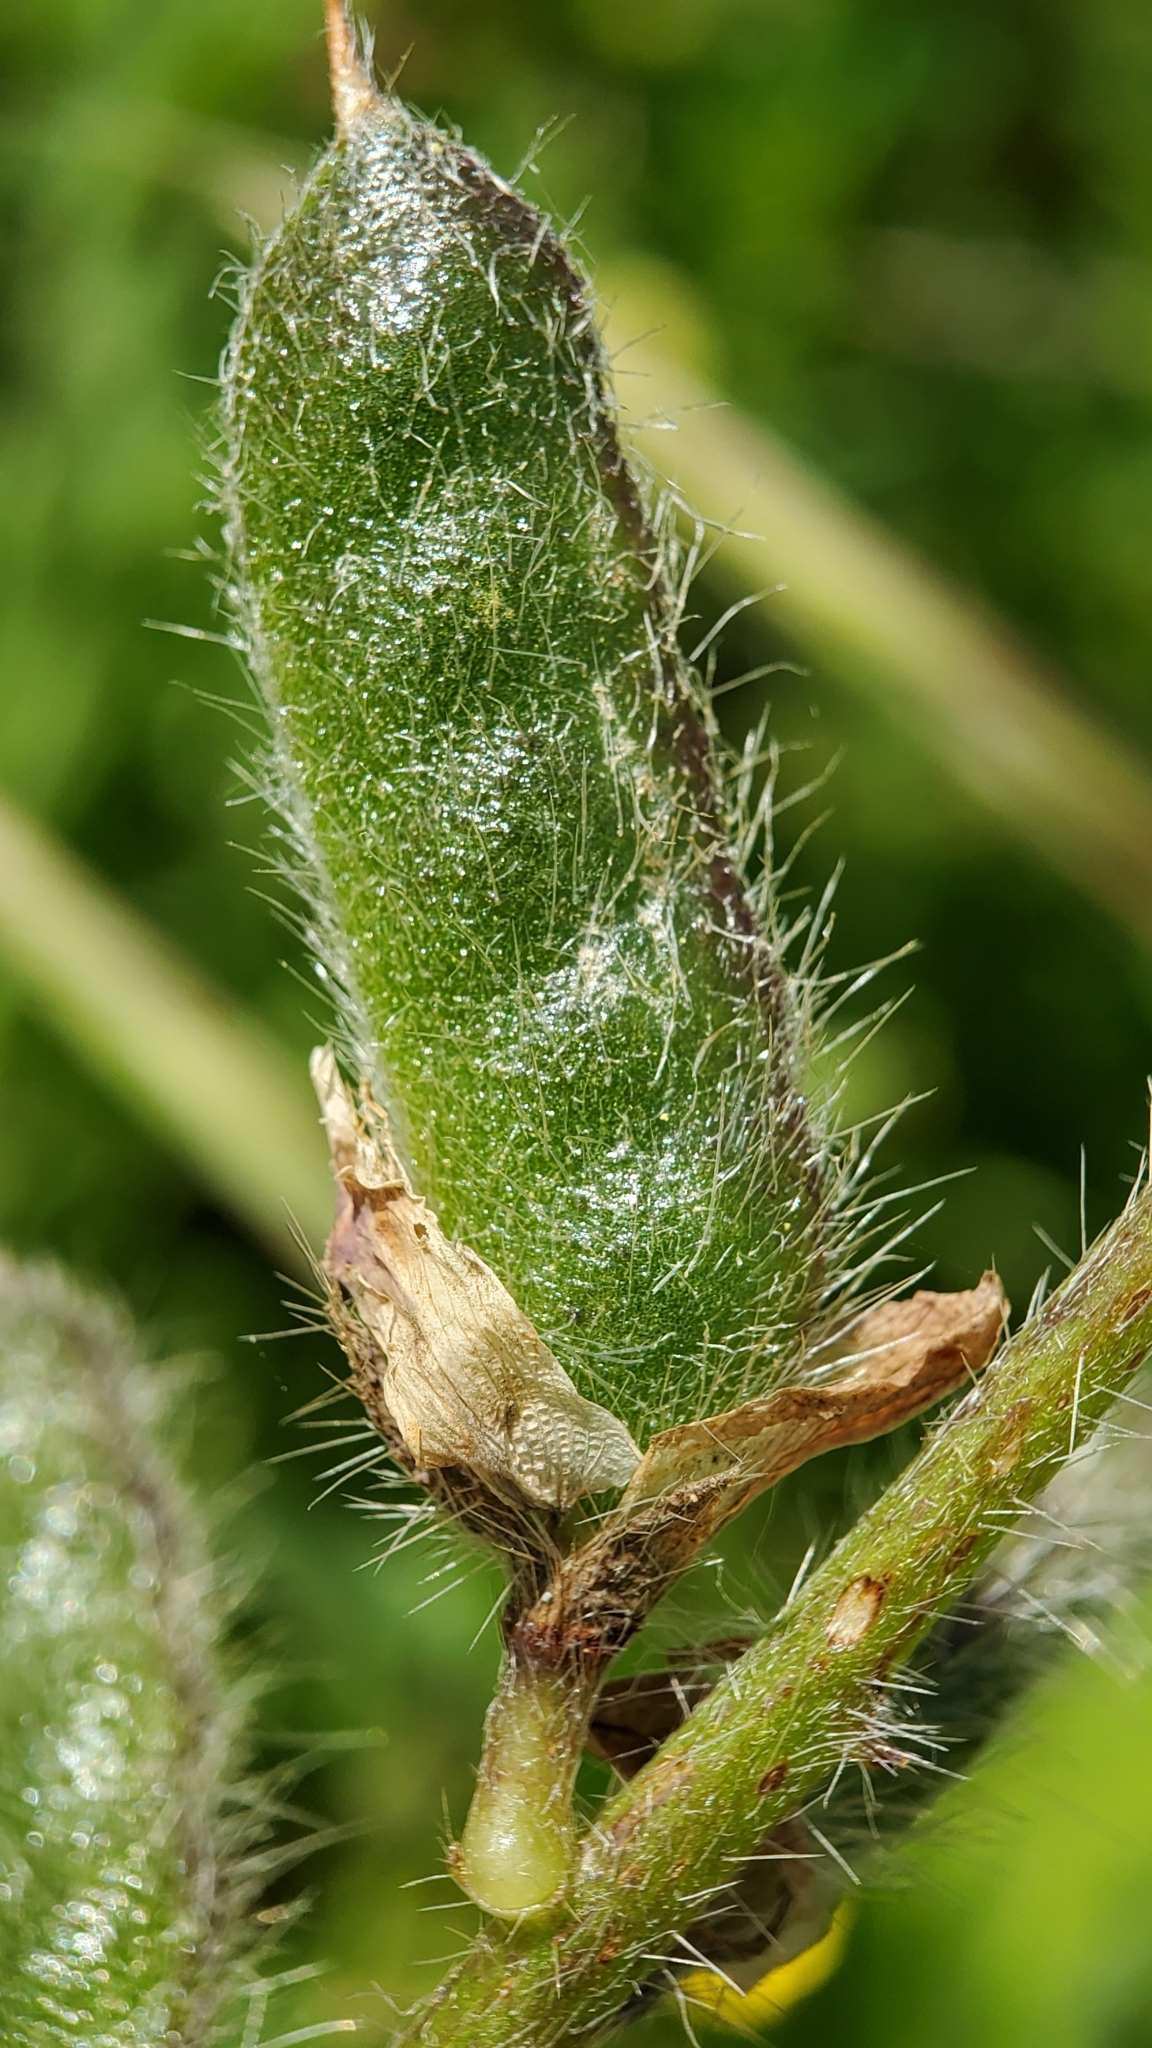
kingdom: Plantae
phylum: Tracheophyta
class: Magnoliopsida
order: Fabales
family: Fabaceae
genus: Lupinus
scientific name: Lupinus hirsutissimus
